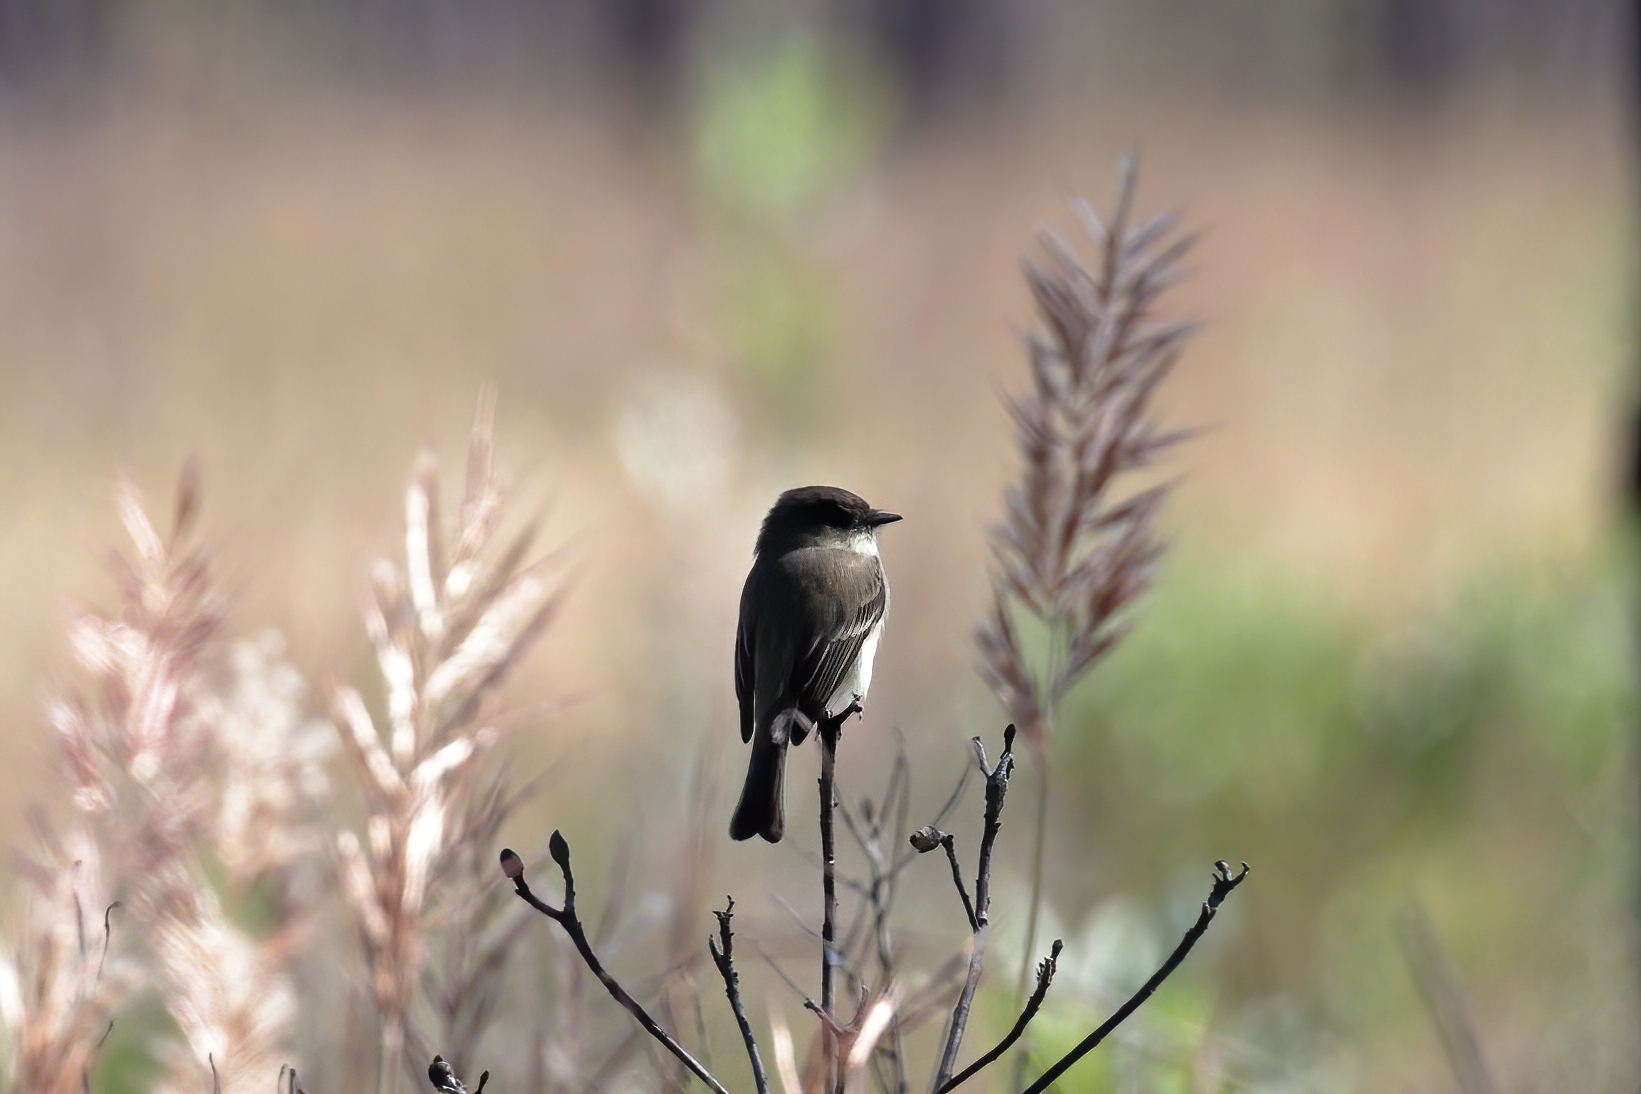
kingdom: Animalia
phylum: Chordata
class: Aves
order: Passeriformes
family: Tyrannidae
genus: Sayornis
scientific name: Sayornis phoebe
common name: Eastern phoebe
